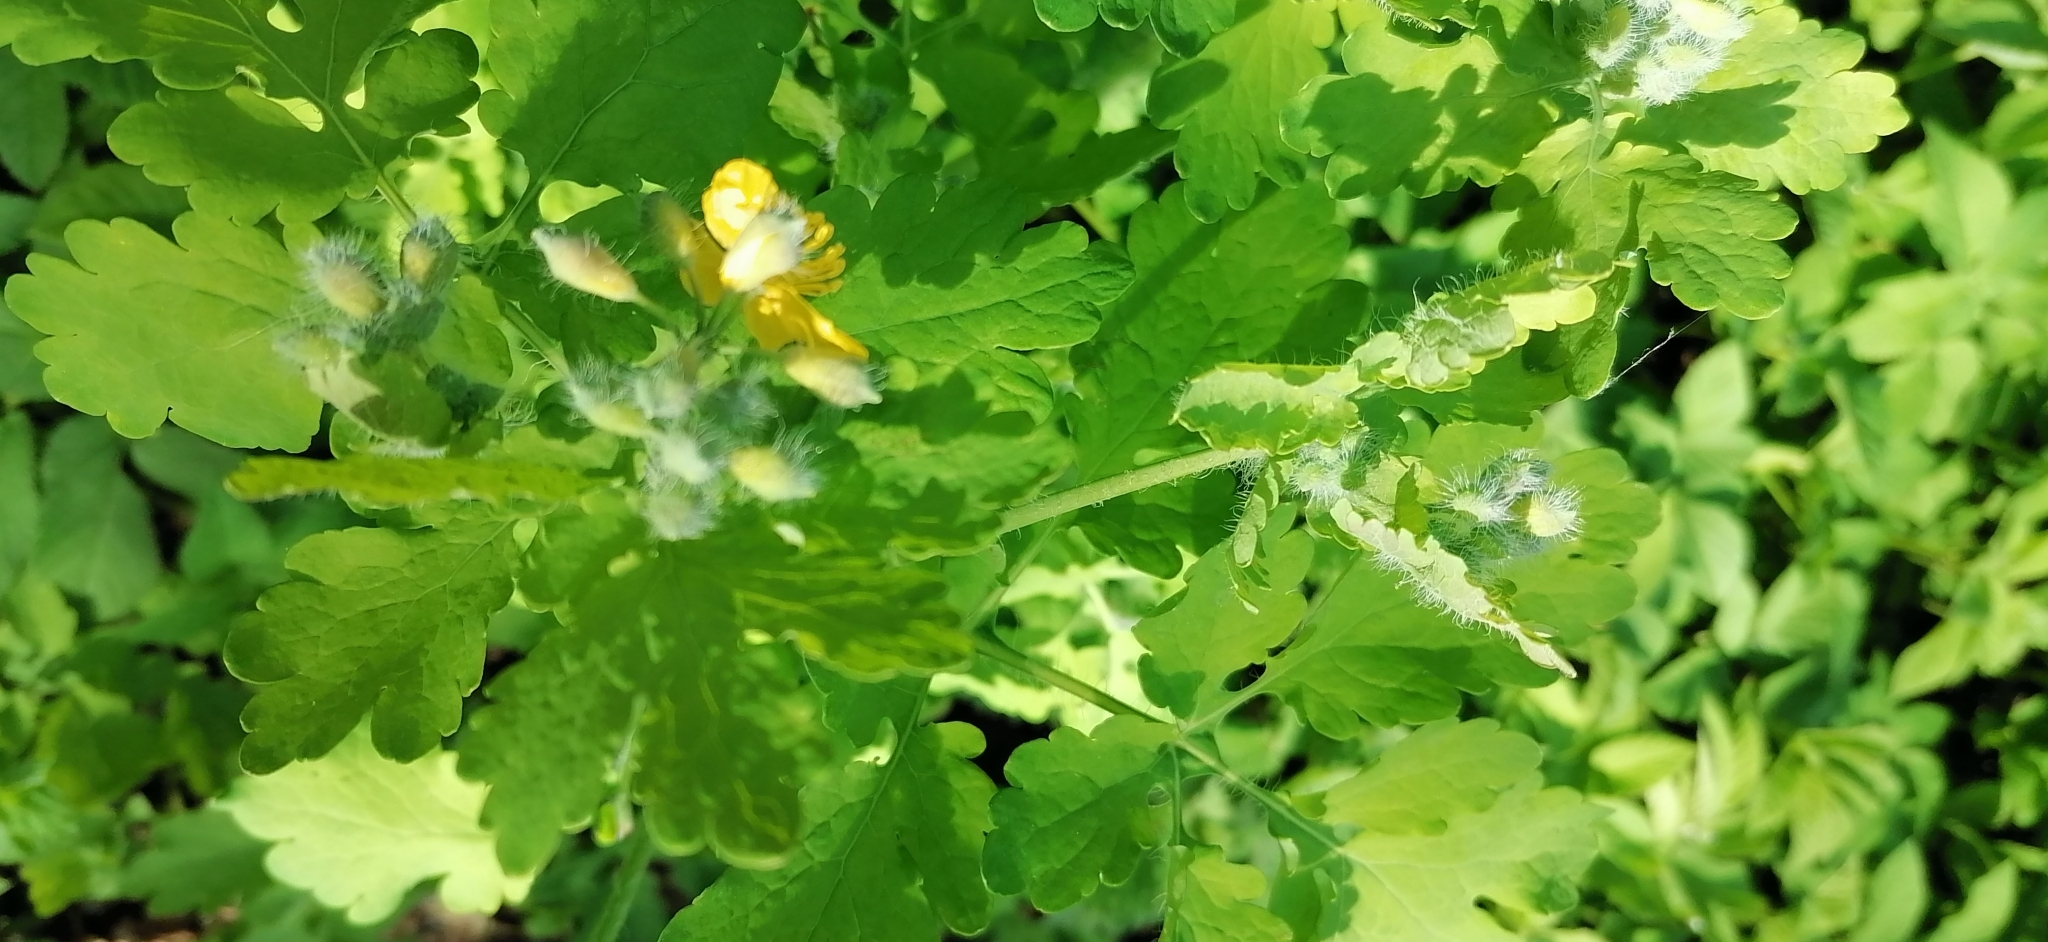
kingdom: Plantae
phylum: Tracheophyta
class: Magnoliopsida
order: Ranunculales
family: Papaveraceae
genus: Chelidonium
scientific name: Chelidonium majus
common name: Greater celandine
